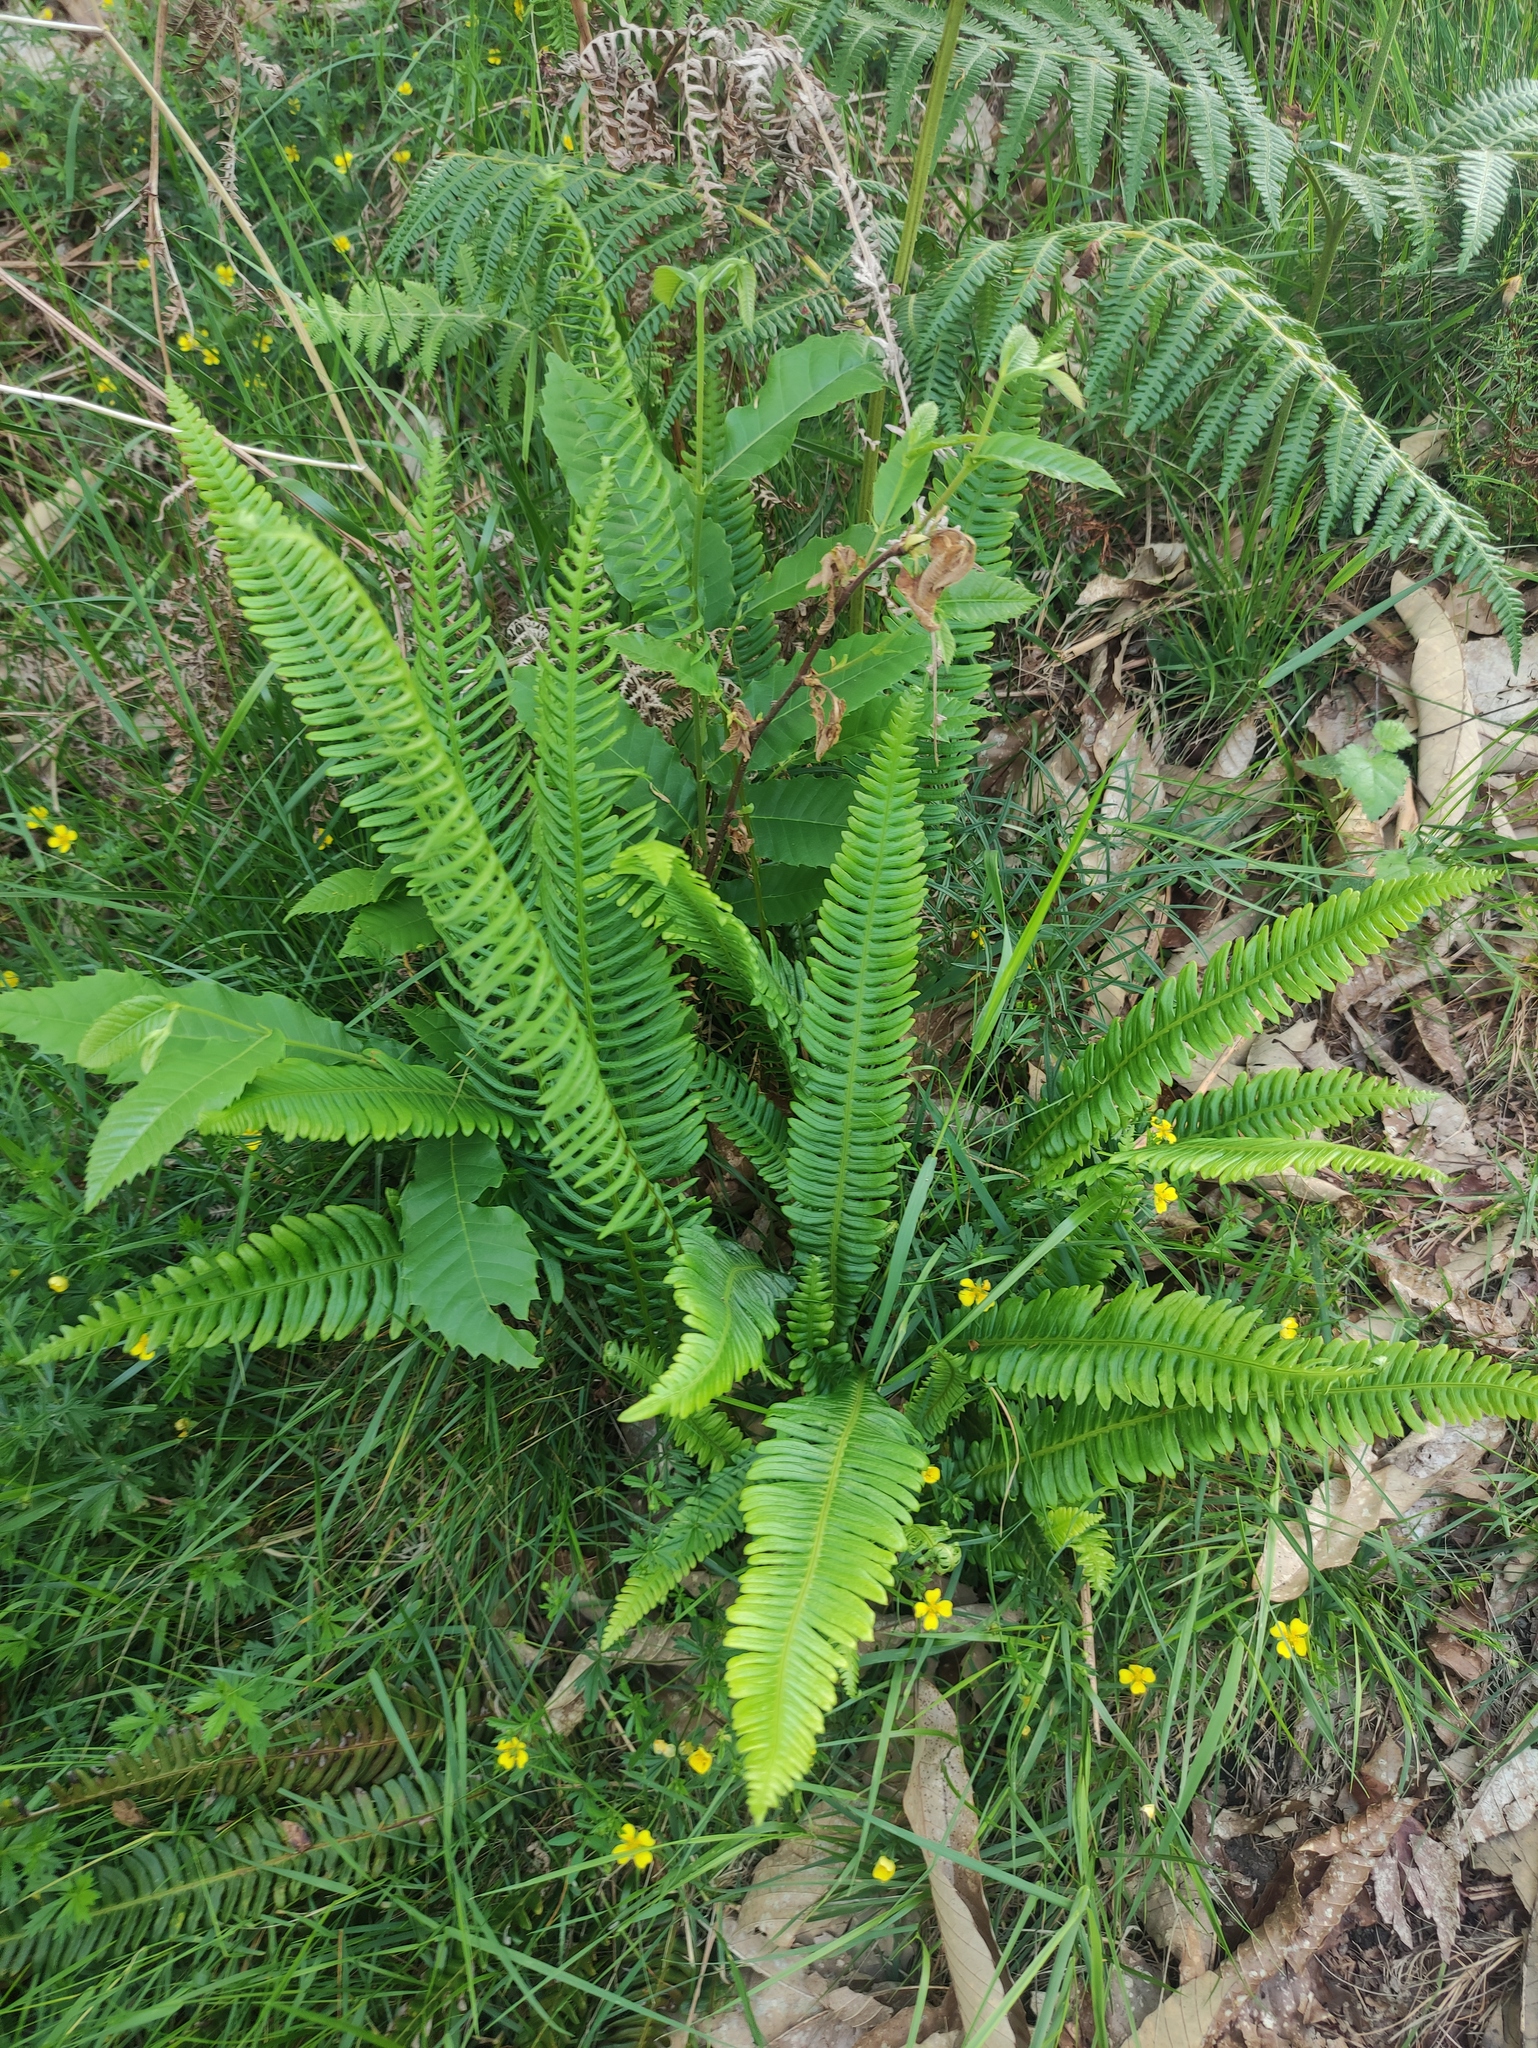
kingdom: Plantae
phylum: Tracheophyta
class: Polypodiopsida
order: Polypodiales
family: Blechnaceae
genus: Struthiopteris
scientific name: Struthiopteris spicant
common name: Deer fern
